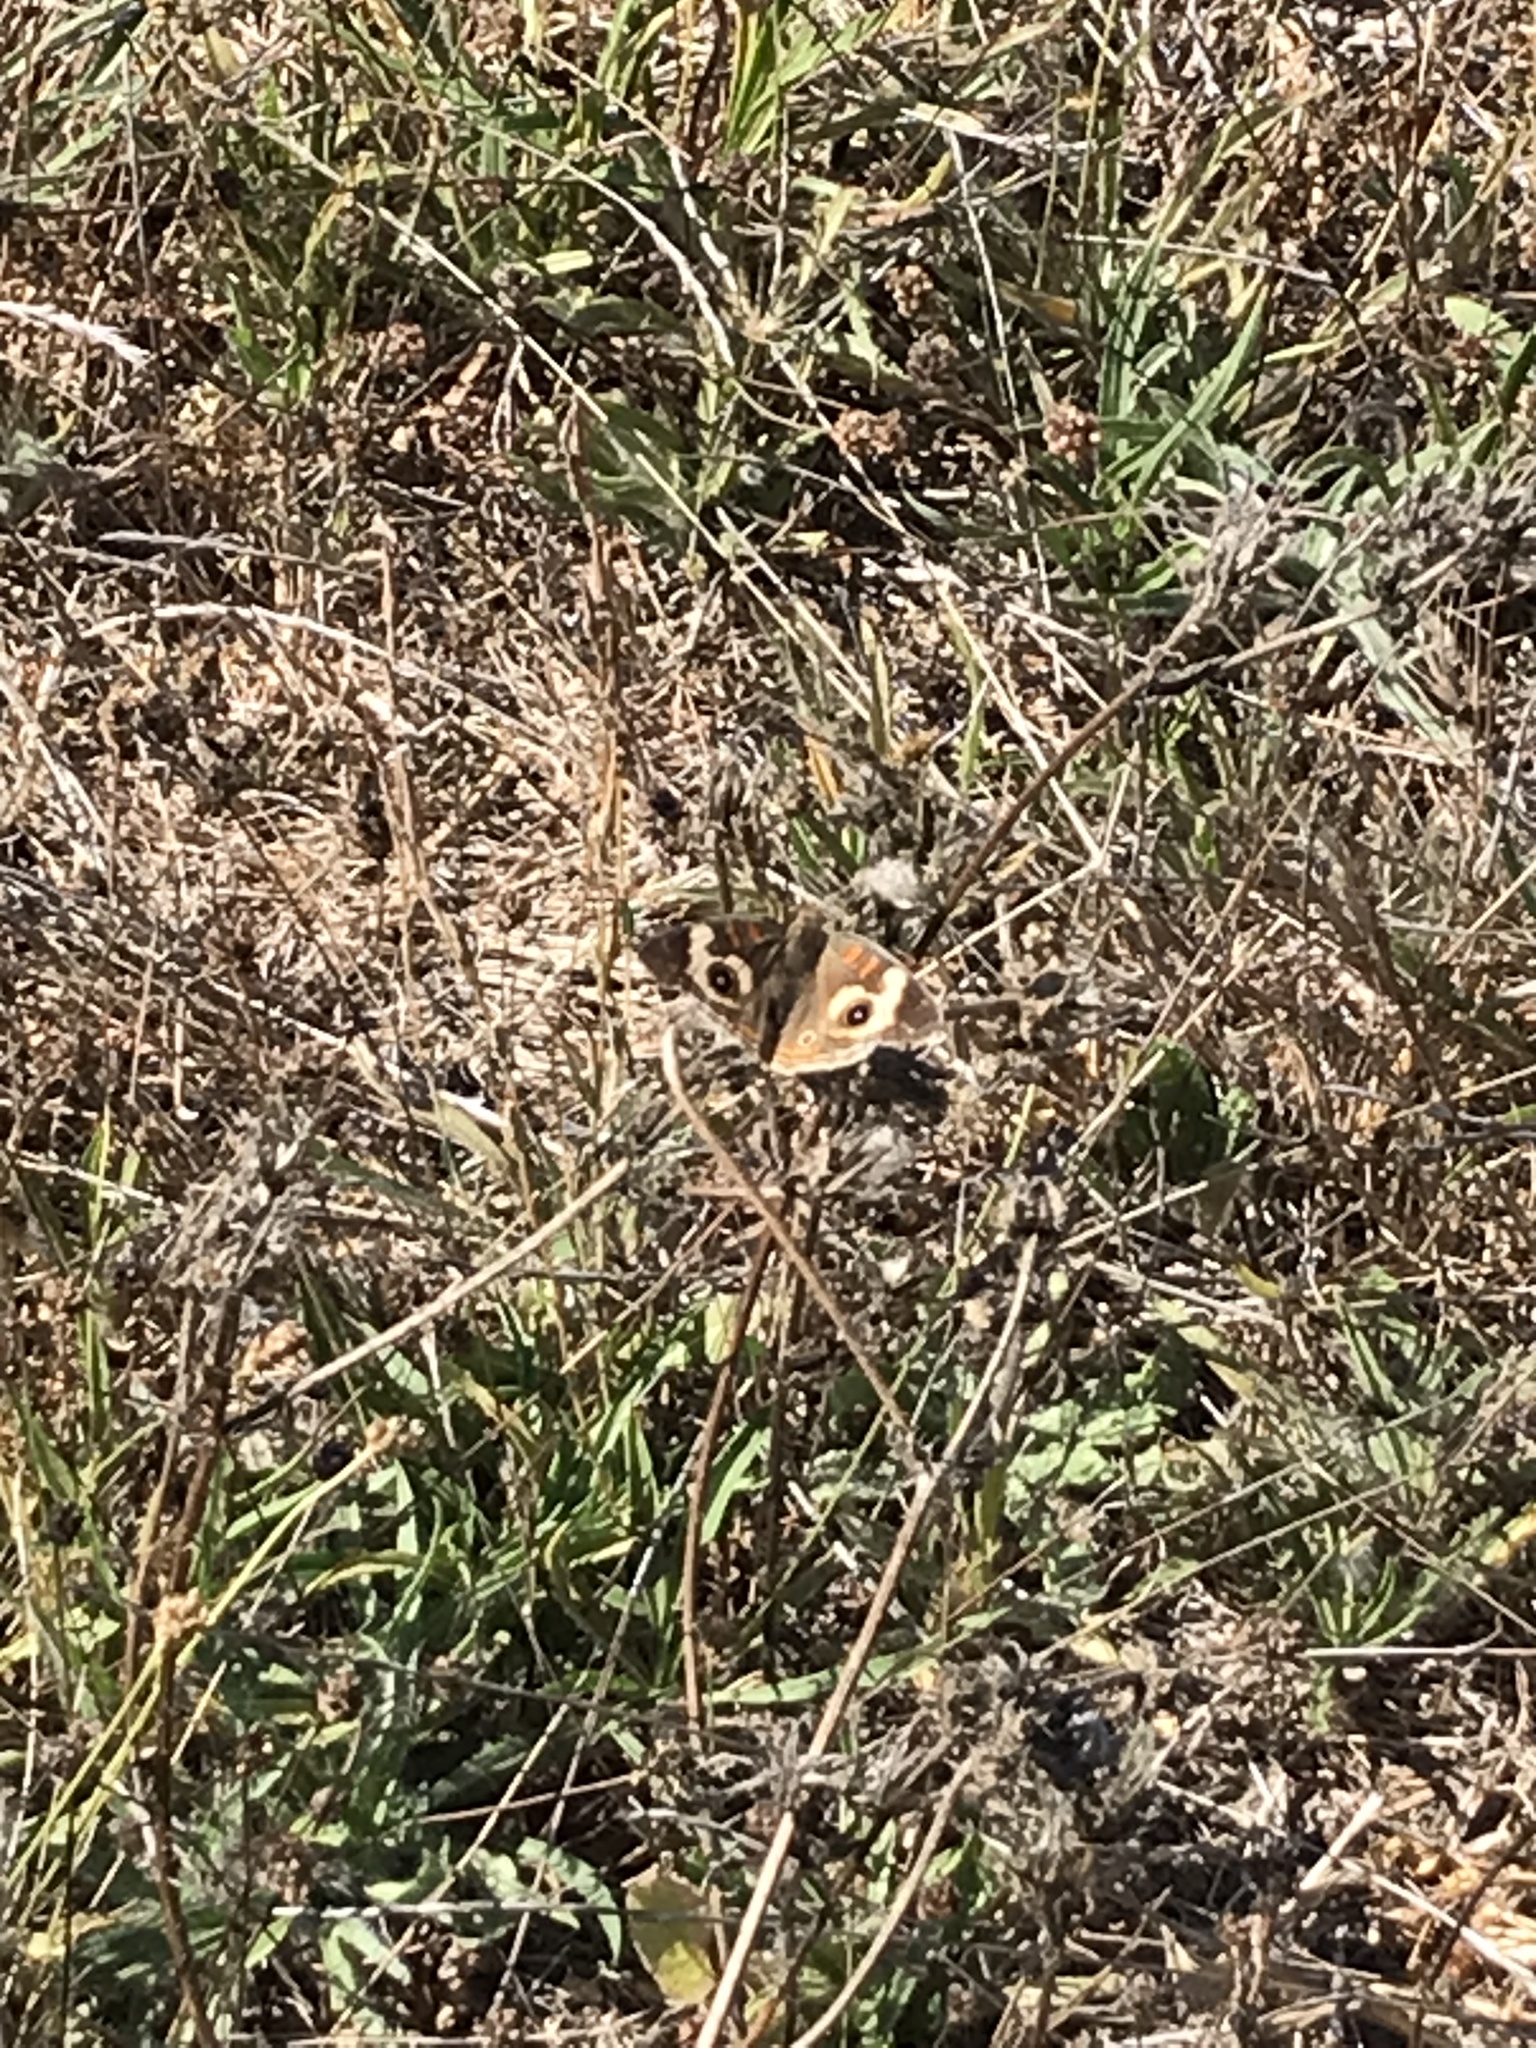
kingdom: Animalia
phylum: Arthropoda
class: Insecta
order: Lepidoptera
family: Nymphalidae
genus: Junonia
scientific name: Junonia grisea
